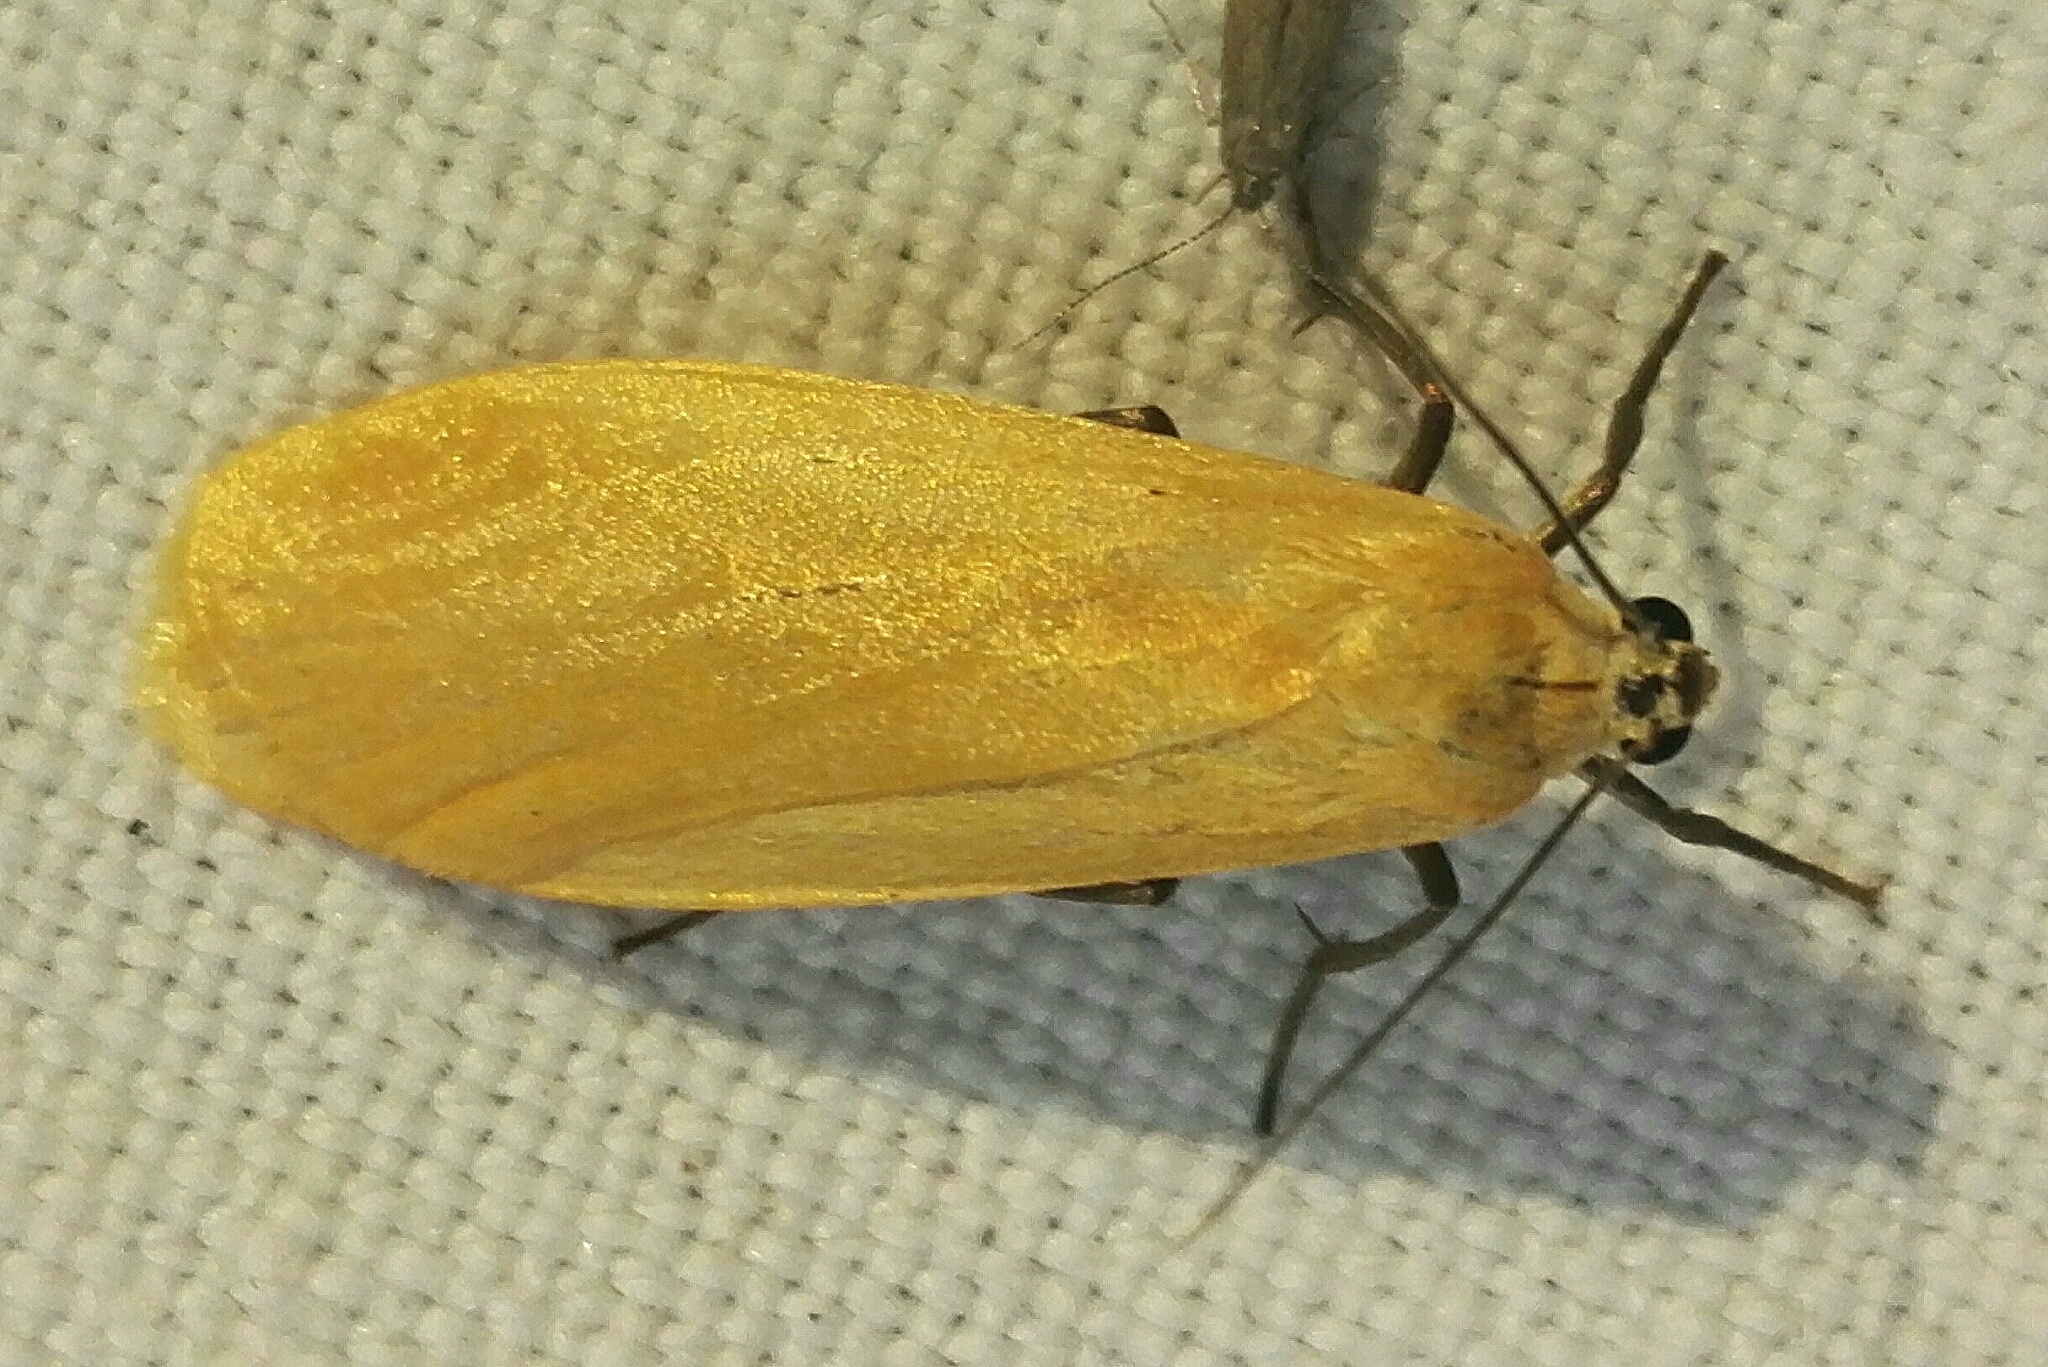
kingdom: Animalia
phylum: Arthropoda
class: Insecta
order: Lepidoptera
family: Erebidae
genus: Wittia
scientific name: Wittia sororcula
